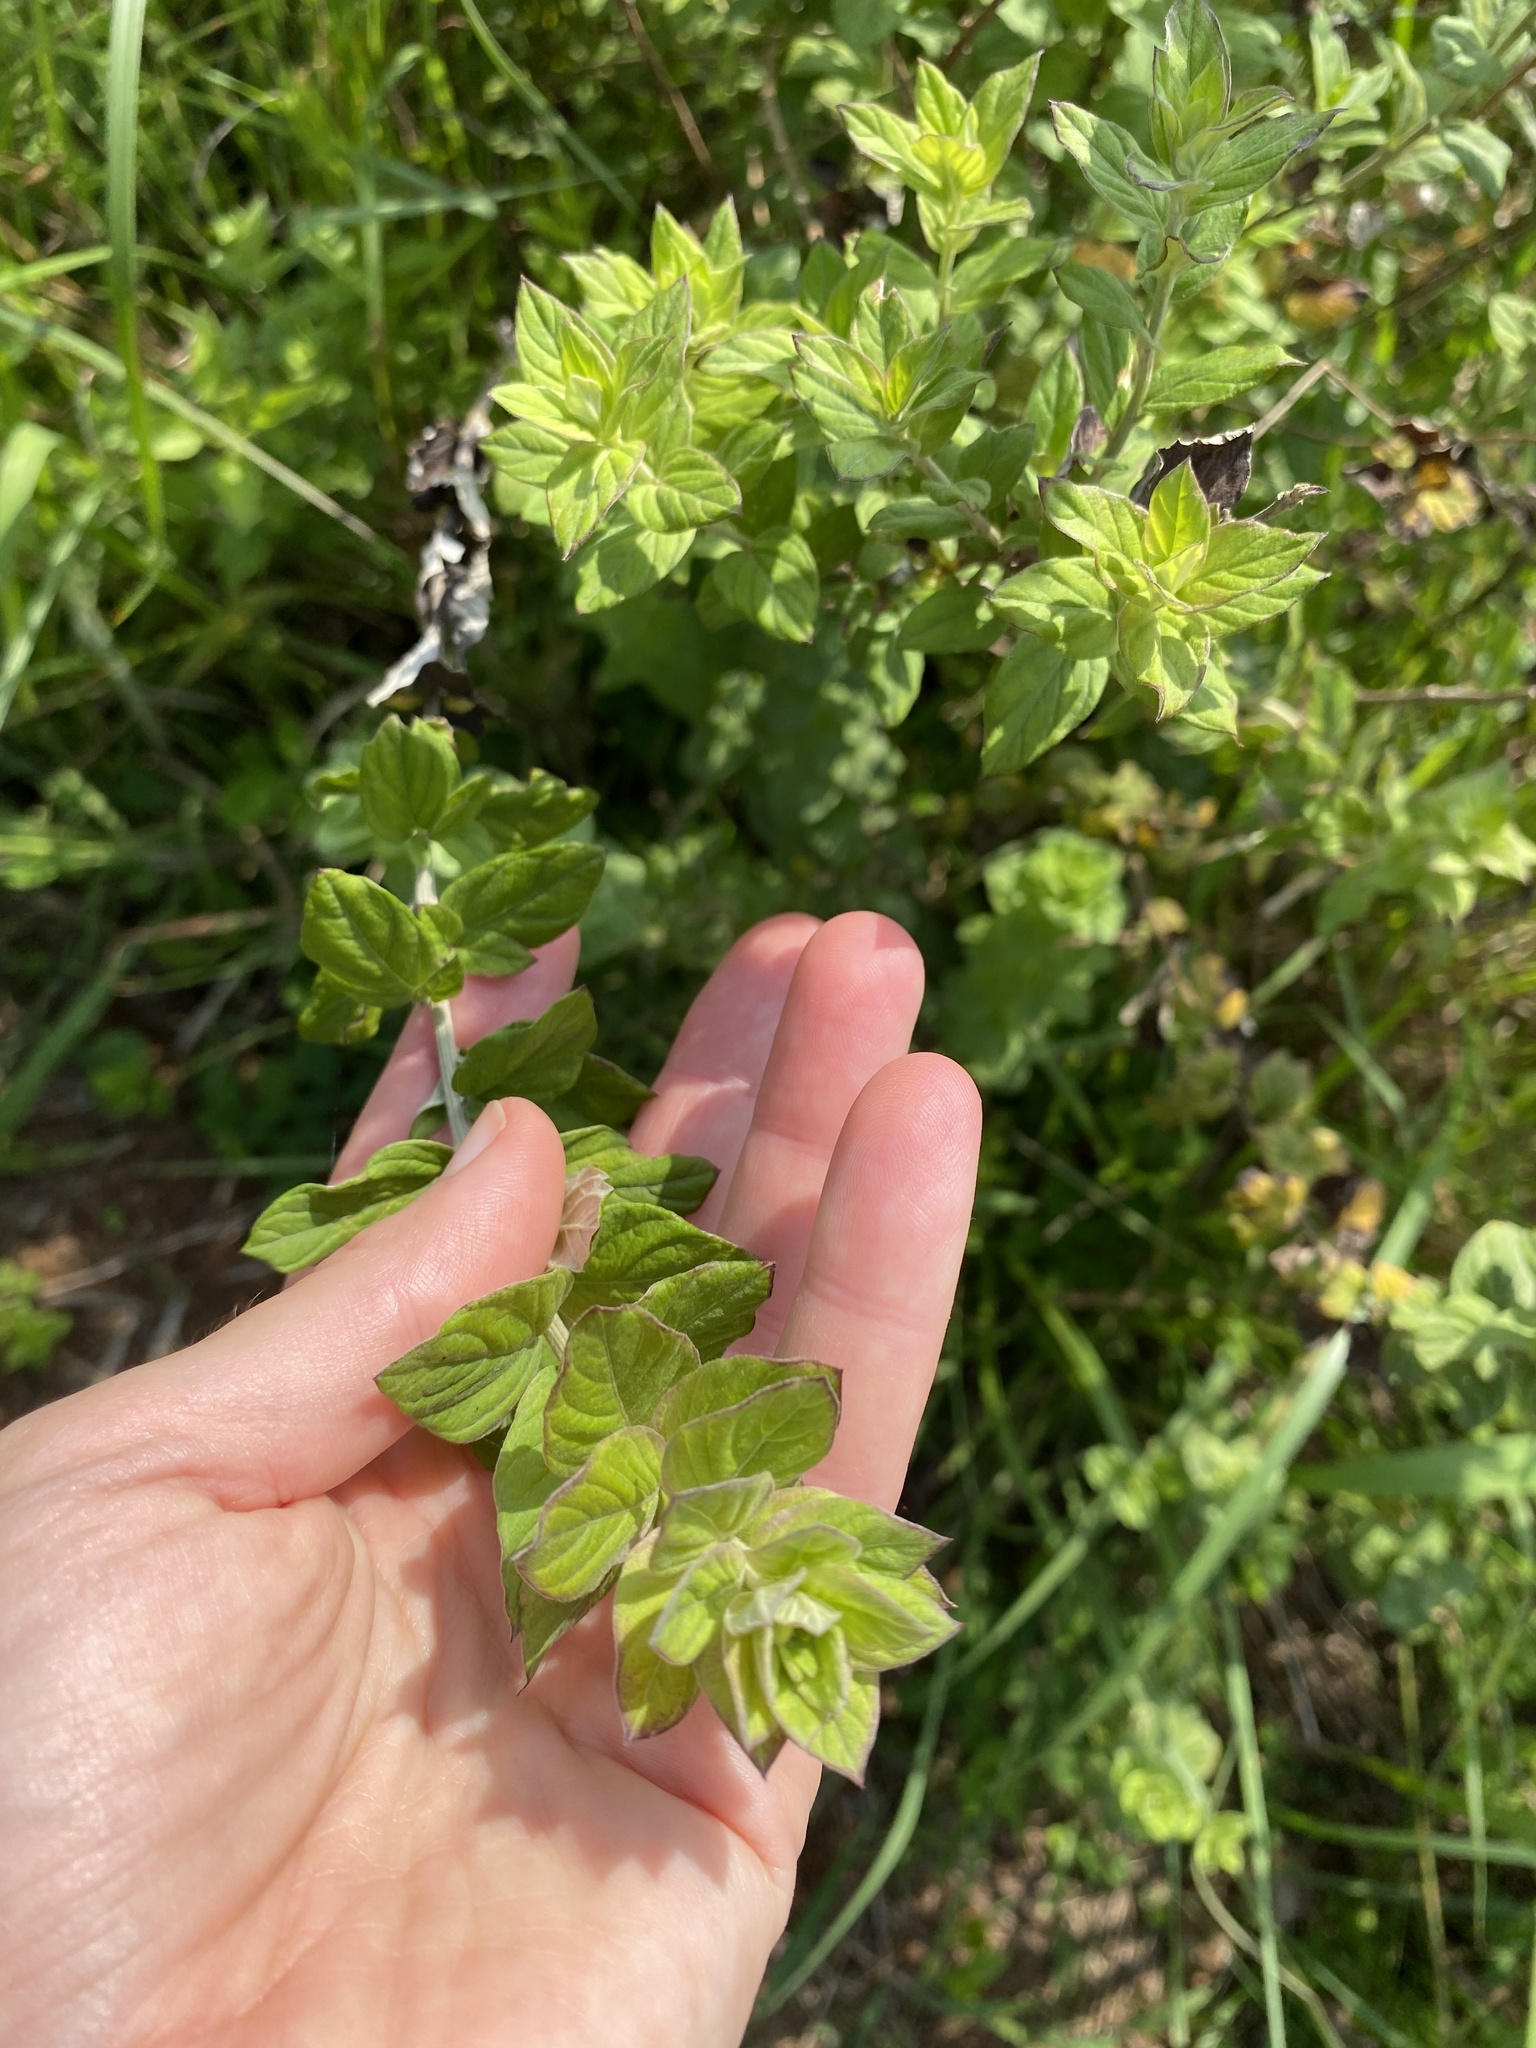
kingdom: Plantae
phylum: Tracheophyta
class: Magnoliopsida
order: Asterales
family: Asteraceae
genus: Hilliardiella
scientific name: Hilliardiella oligocephala
